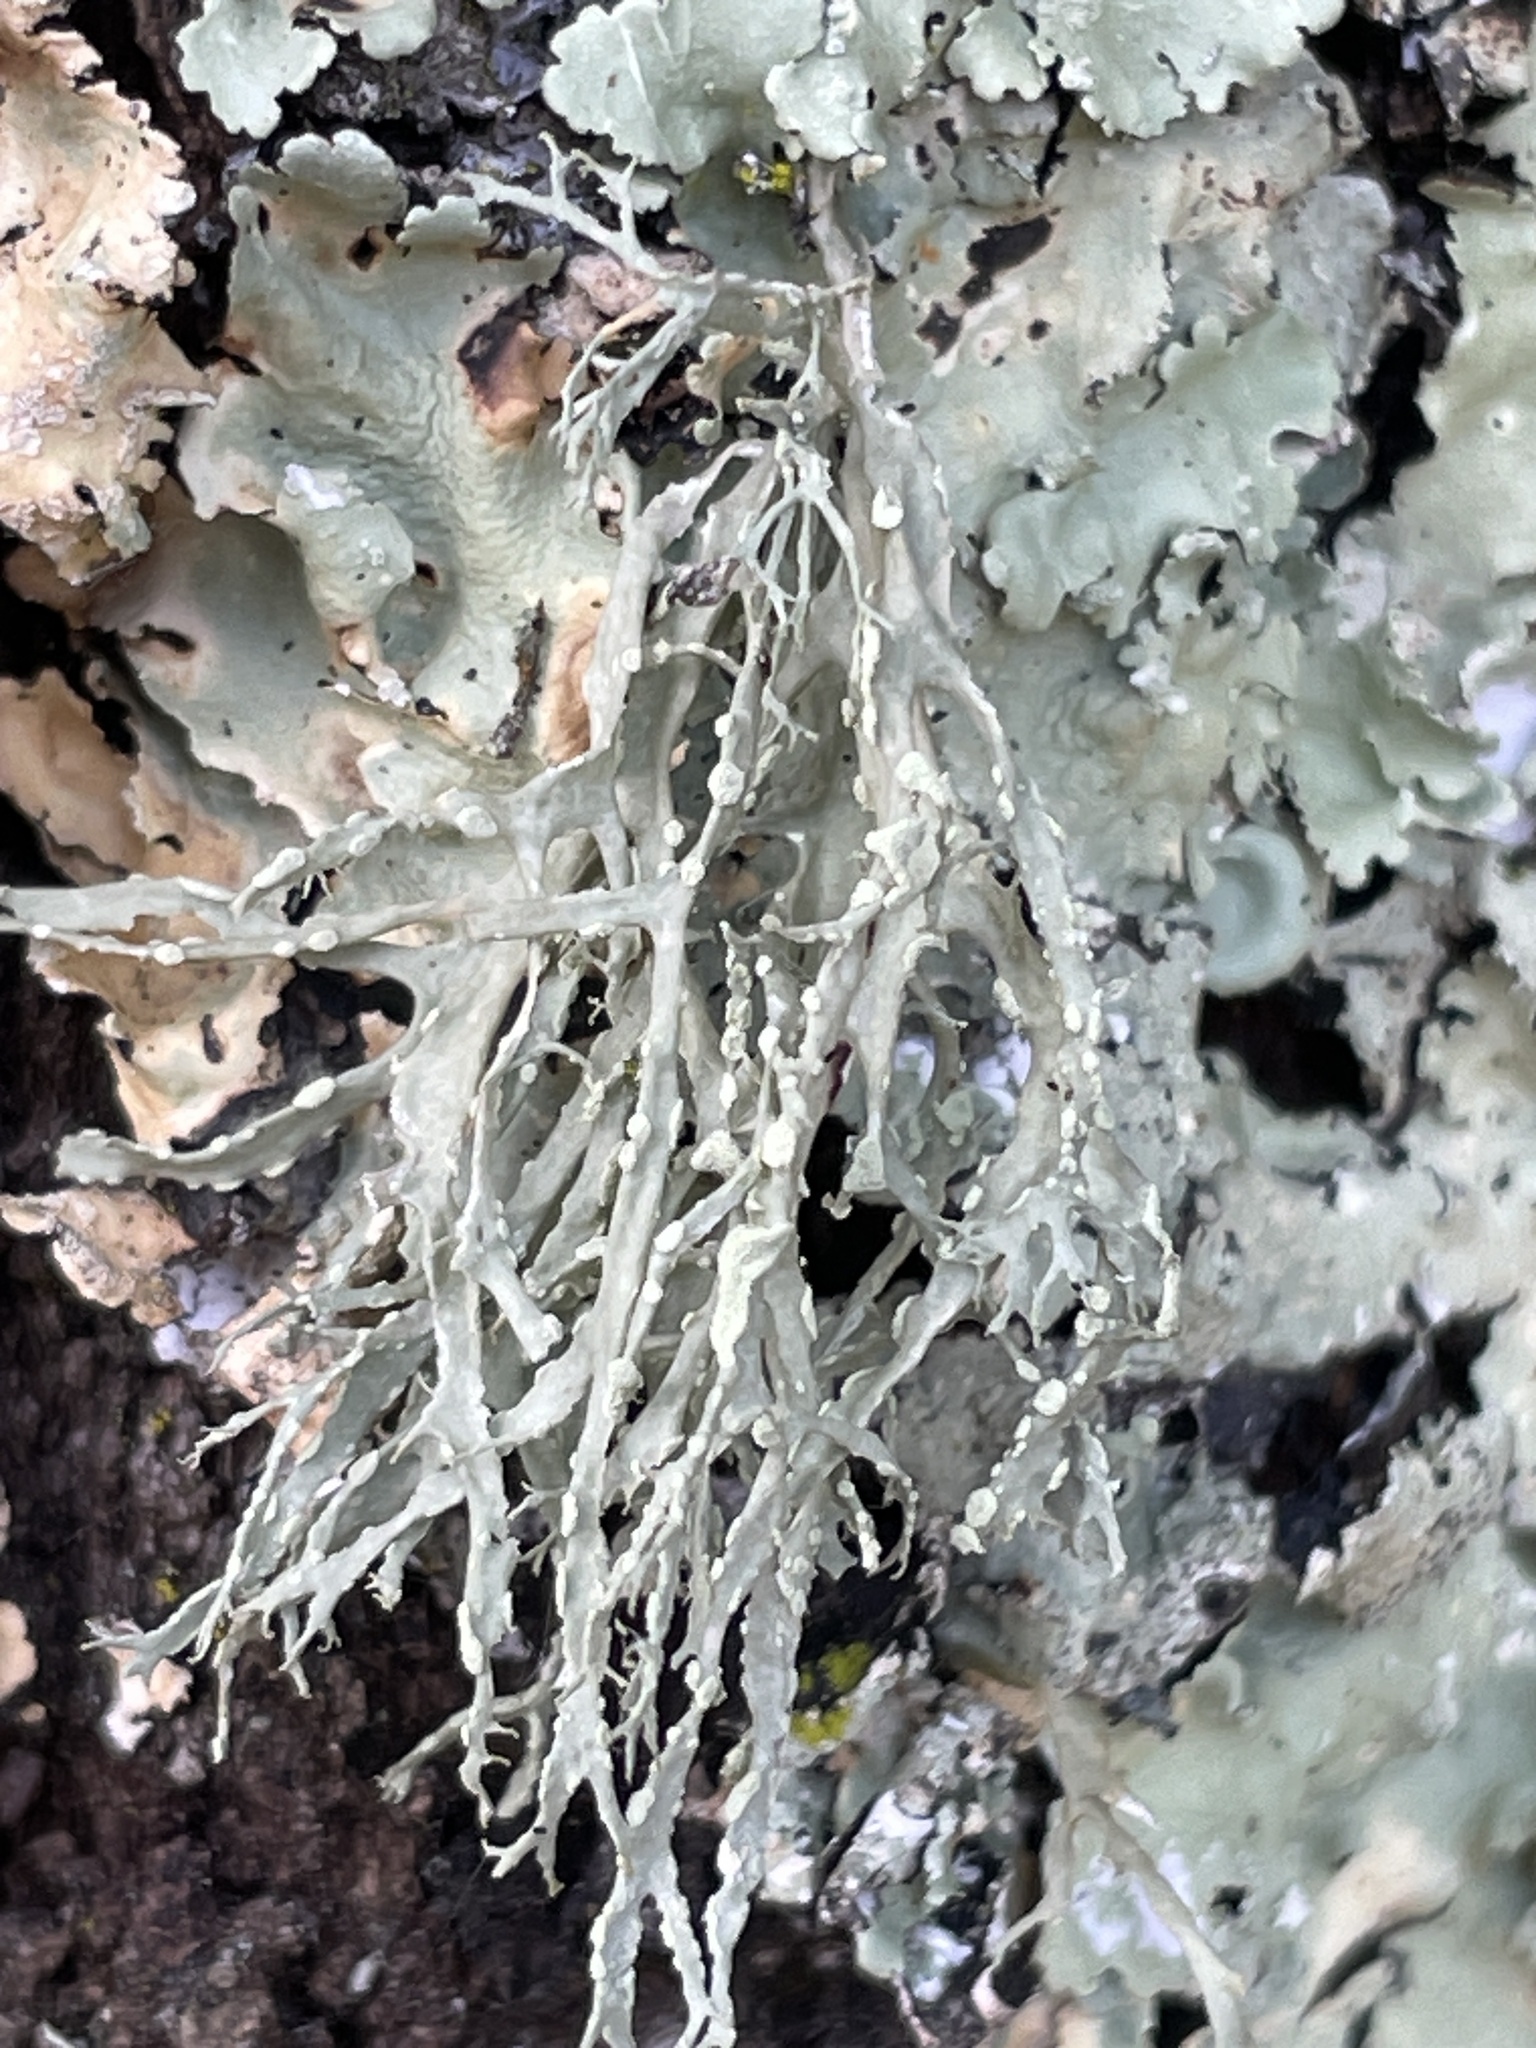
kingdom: Fungi
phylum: Ascomycota
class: Lecanoromycetes
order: Lecanorales
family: Ramalinaceae
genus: Ramalina
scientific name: Ramalina farinacea
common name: Farinose cartilage lichen
